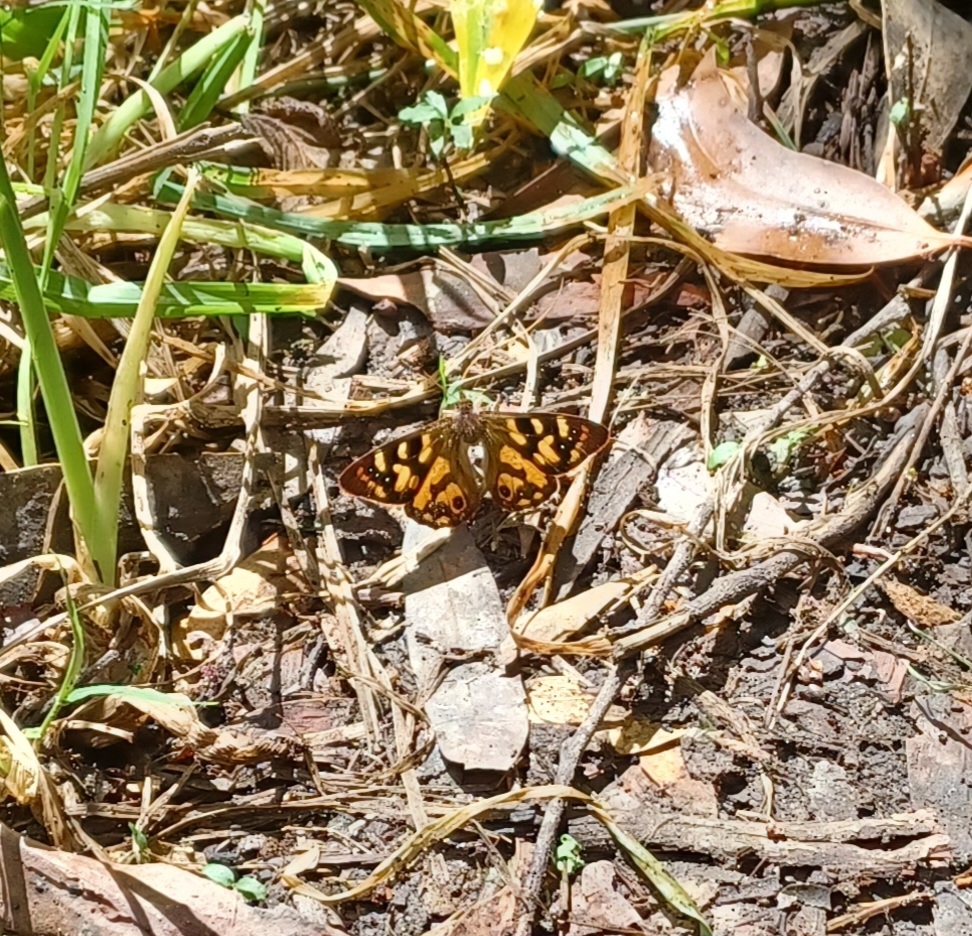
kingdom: Animalia
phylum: Arthropoda
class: Insecta
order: Lepidoptera
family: Nymphalidae
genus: Argynnina
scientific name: Argynnina cyrila
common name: Cyril's brown
